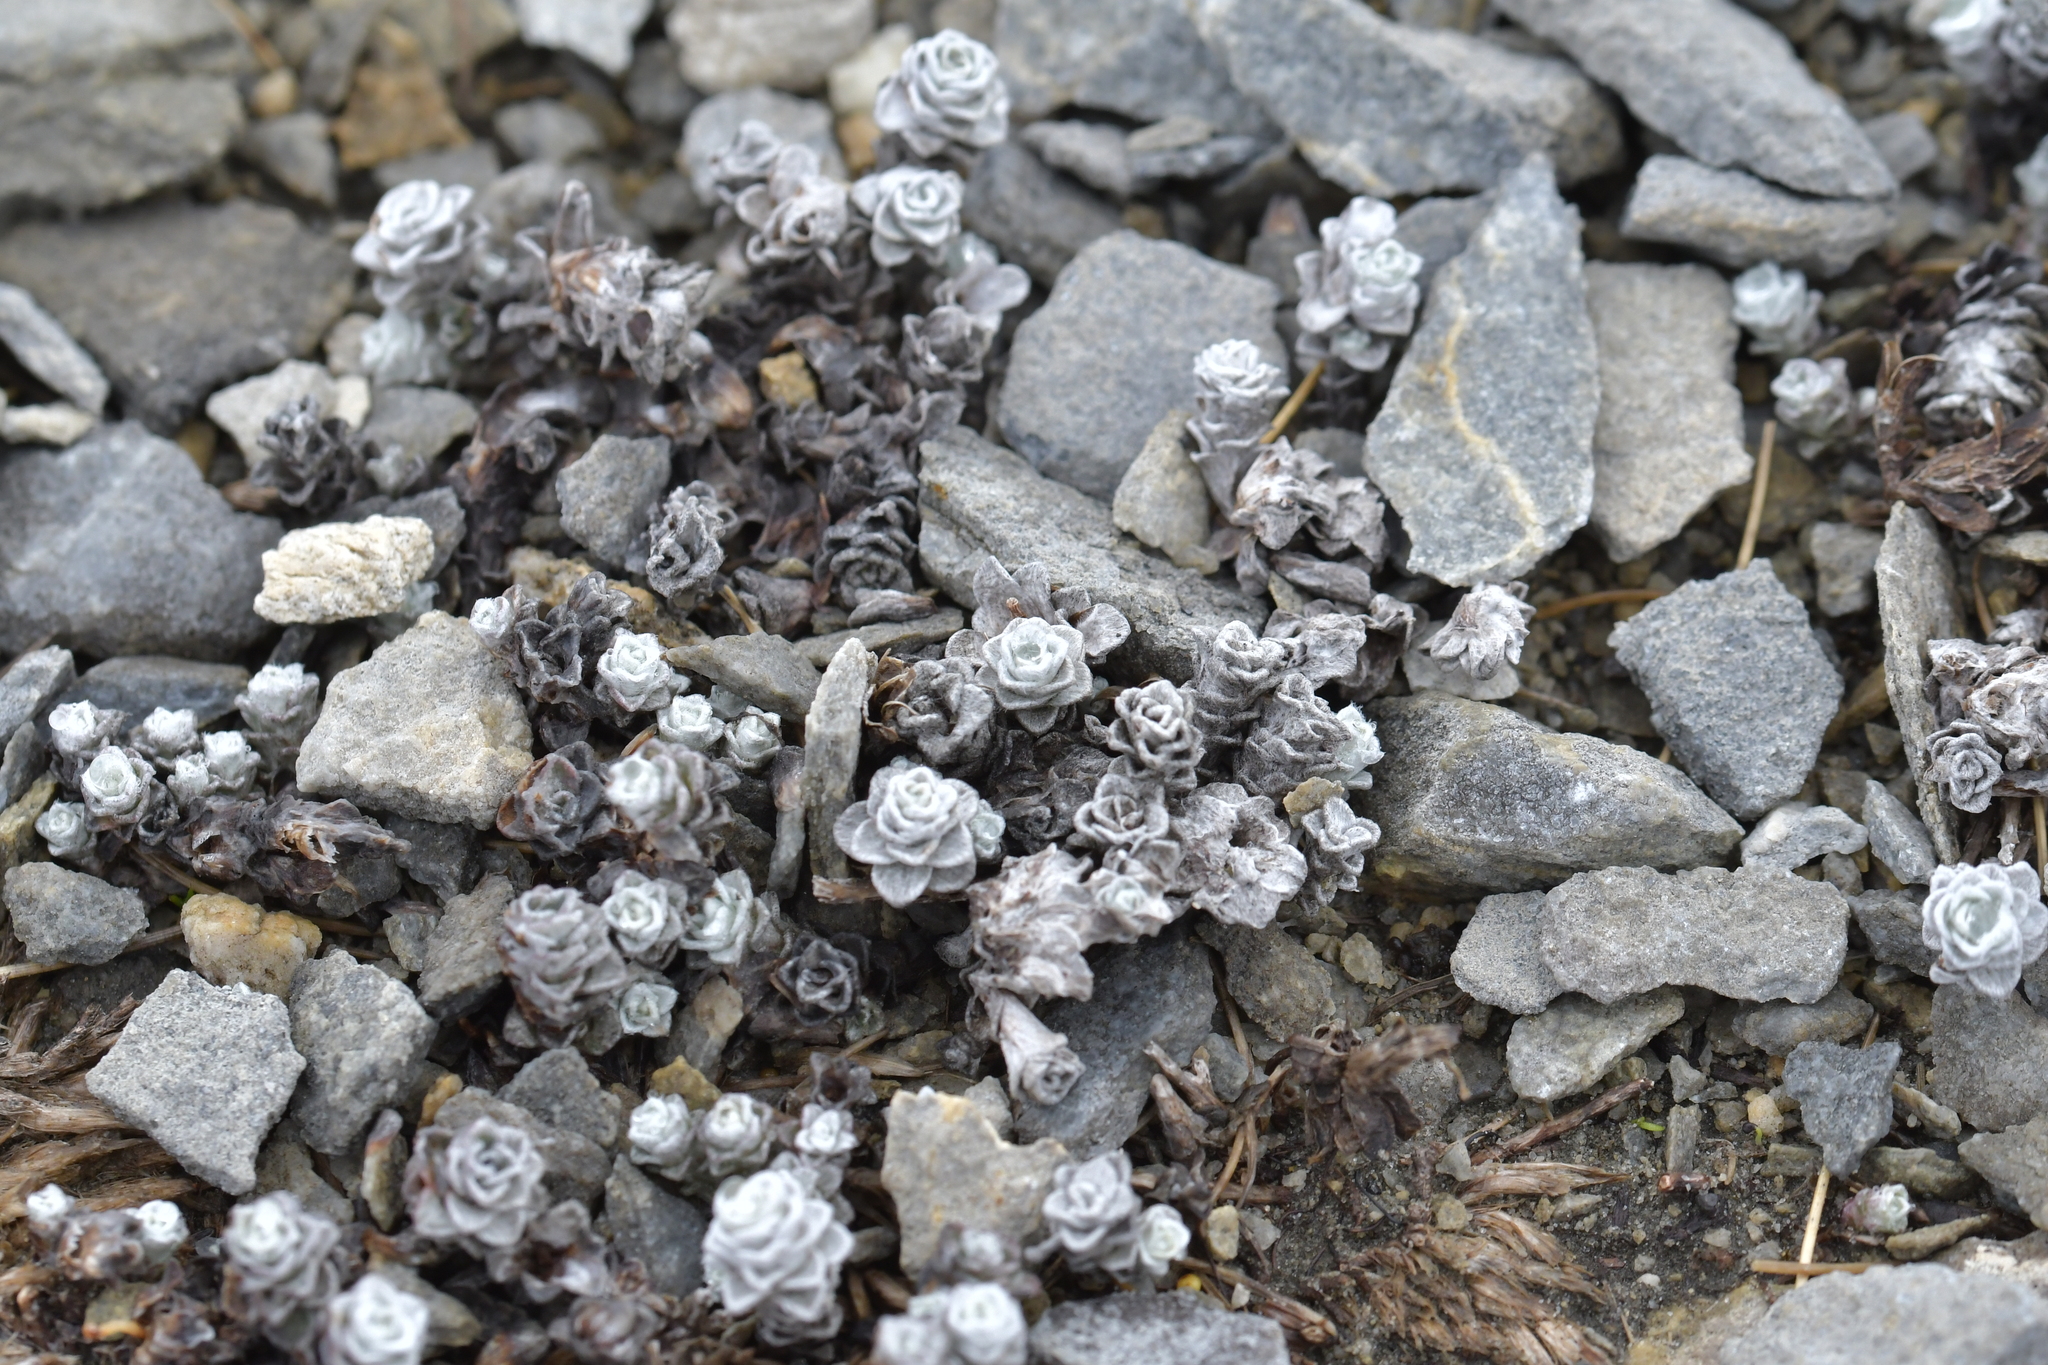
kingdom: Plantae
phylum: Tracheophyta
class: Magnoliopsida
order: Asterales
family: Asteraceae
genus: Leucogenes
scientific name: Leucogenes grandiceps
